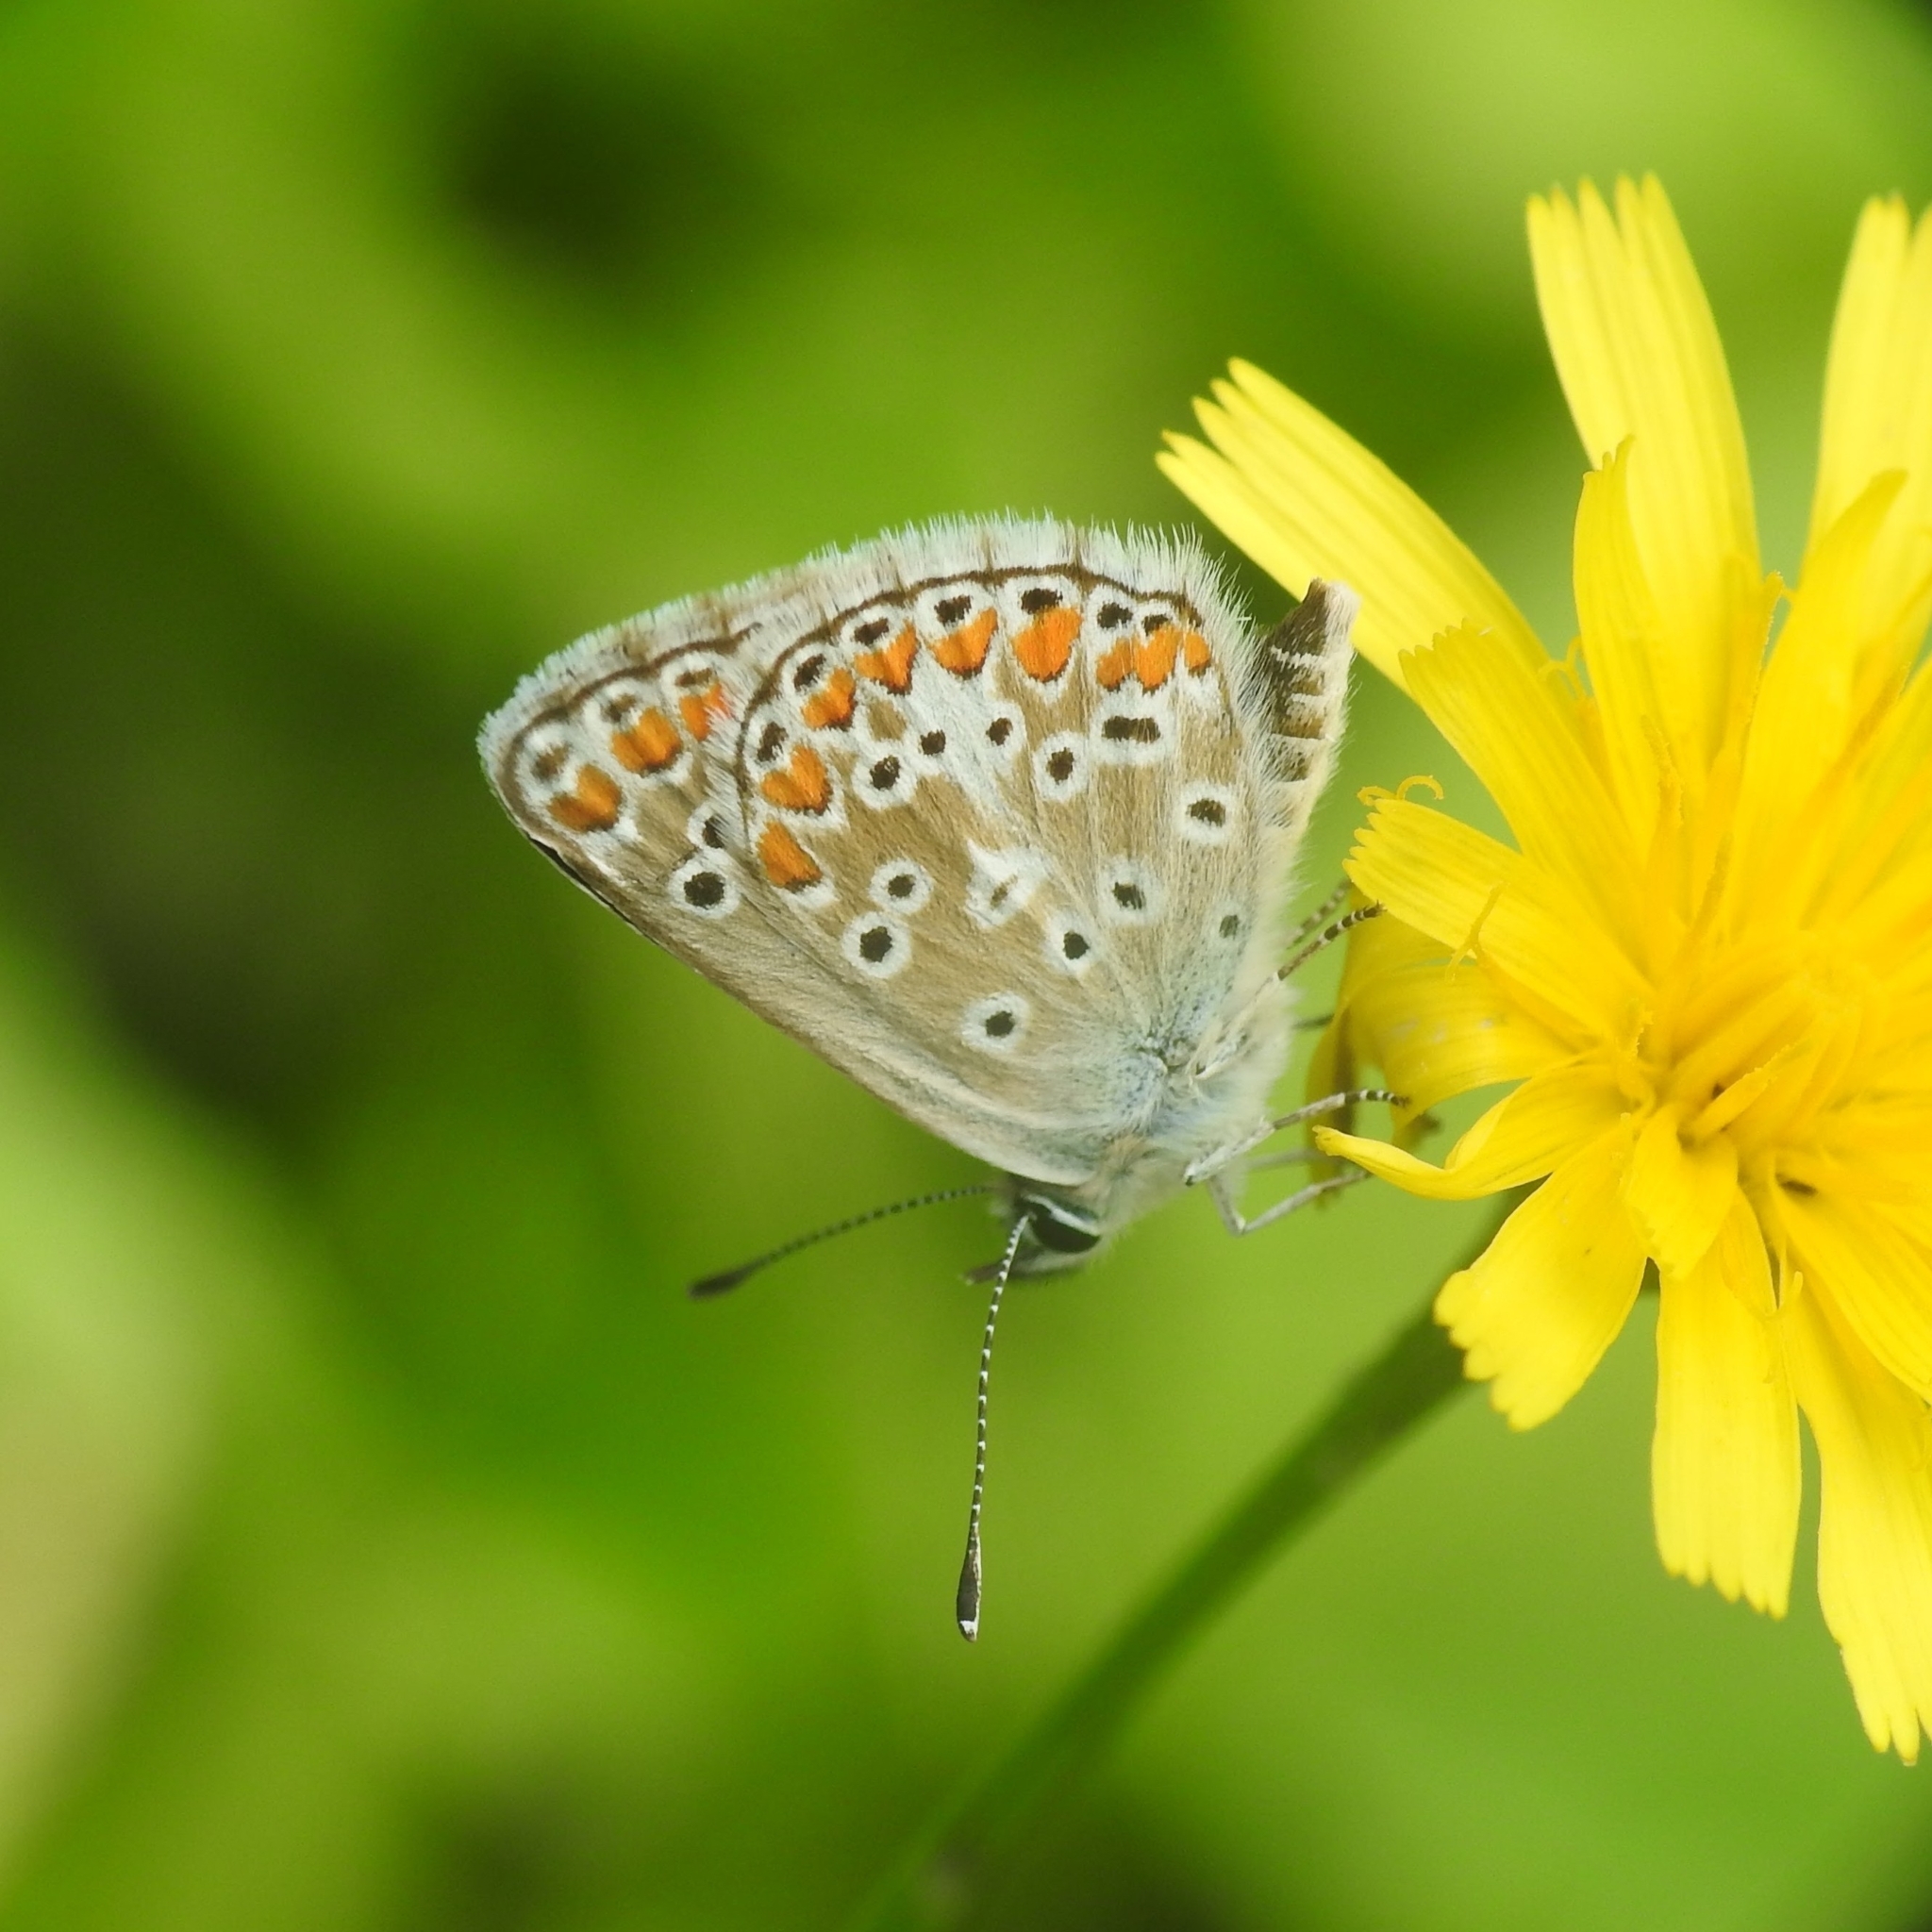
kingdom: Animalia
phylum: Arthropoda
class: Insecta
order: Lepidoptera
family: Lycaenidae
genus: Aricia
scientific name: Aricia agestis
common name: Brown argus
